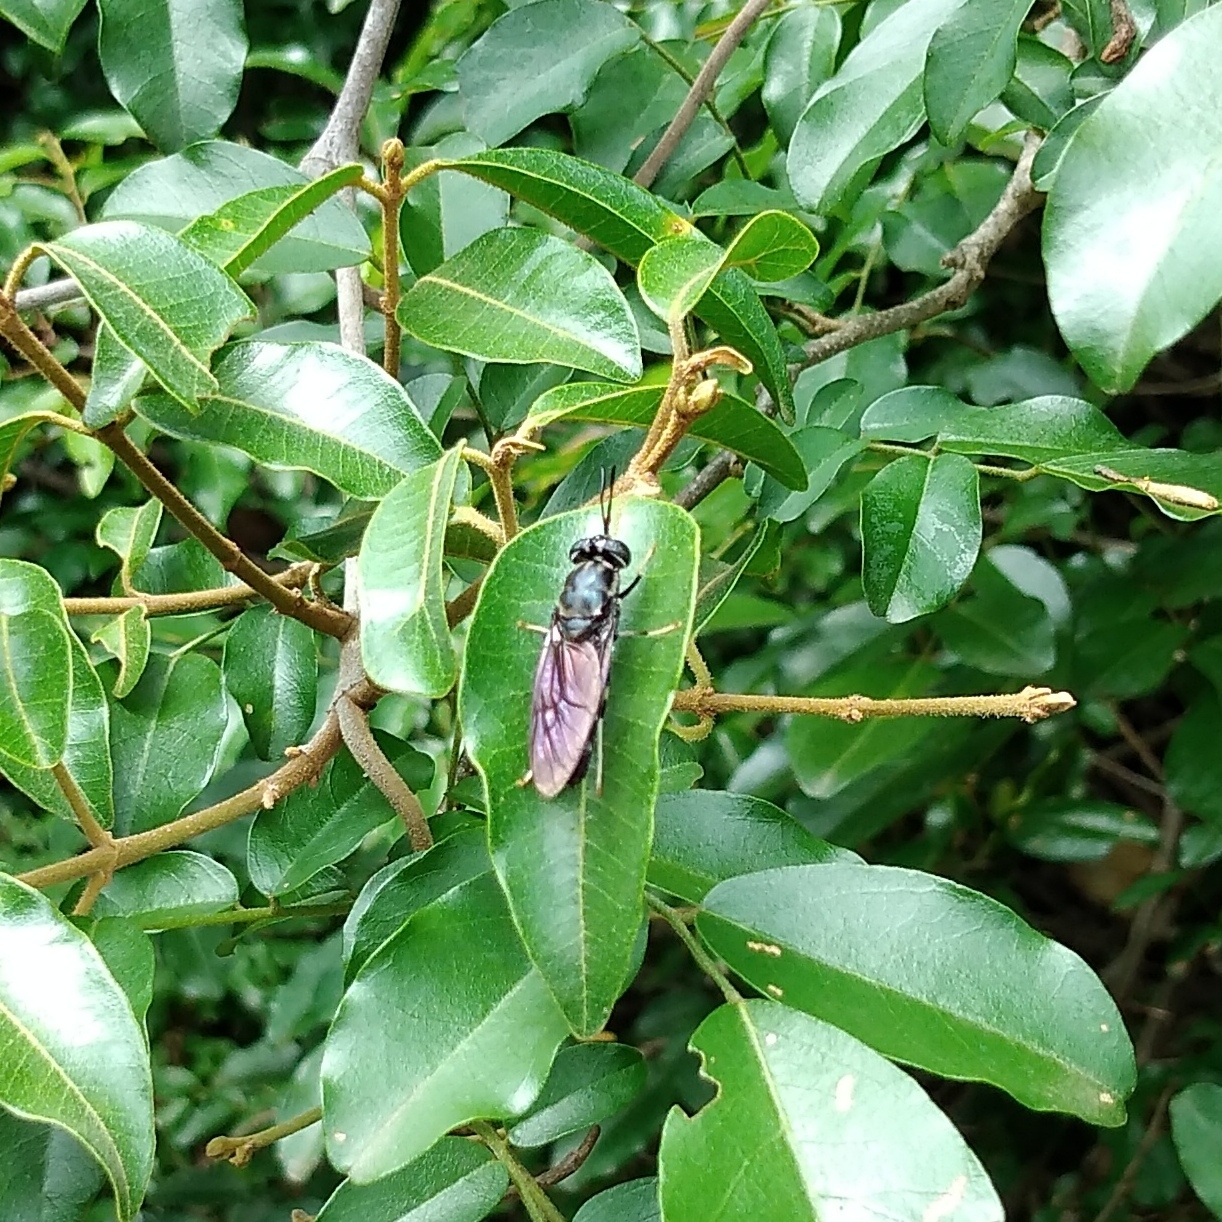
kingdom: Animalia
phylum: Arthropoda
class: Insecta
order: Diptera
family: Stratiomyidae
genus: Hermetia
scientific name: Hermetia illucens
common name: Black soldier fly
